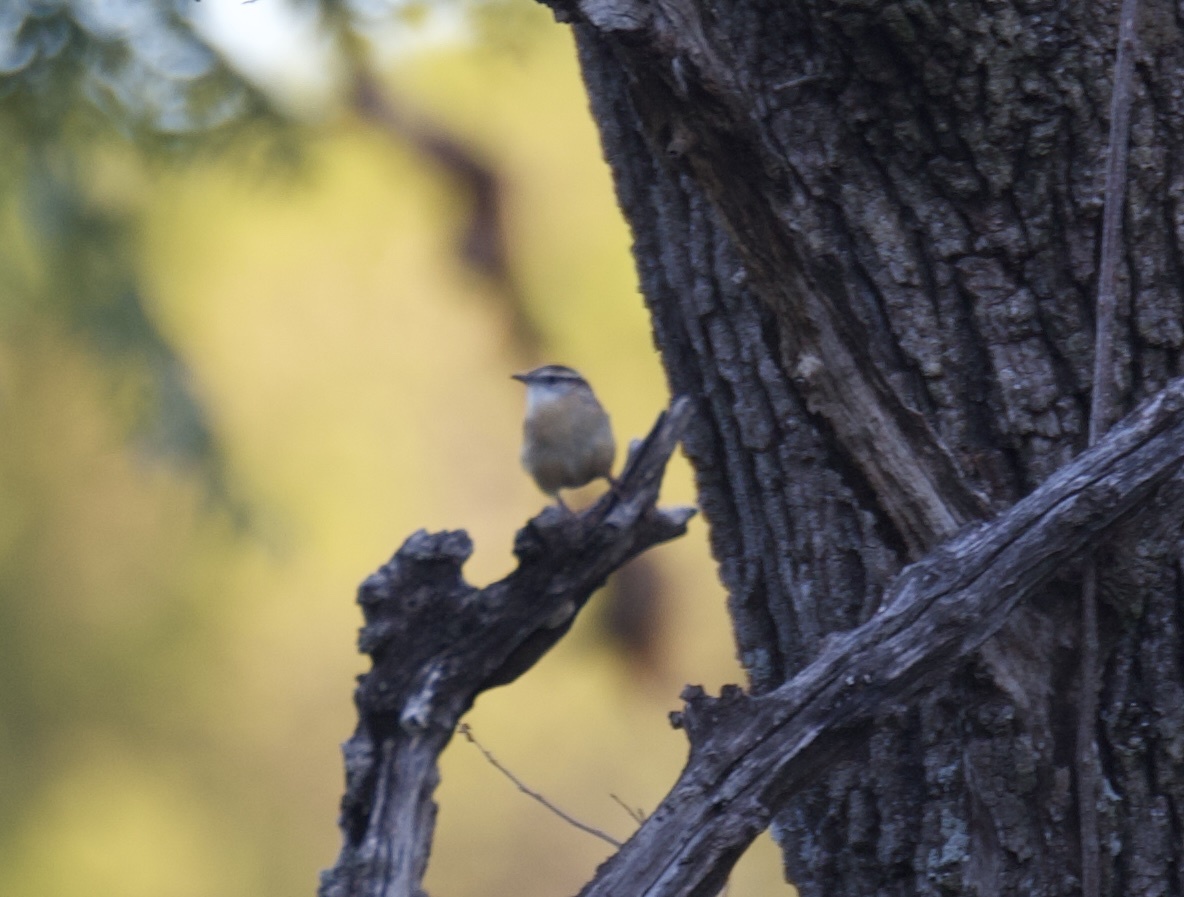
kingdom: Animalia
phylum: Chordata
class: Aves
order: Passeriformes
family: Troglodytidae
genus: Thryothorus
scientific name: Thryothorus ludovicianus
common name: Carolina wren
